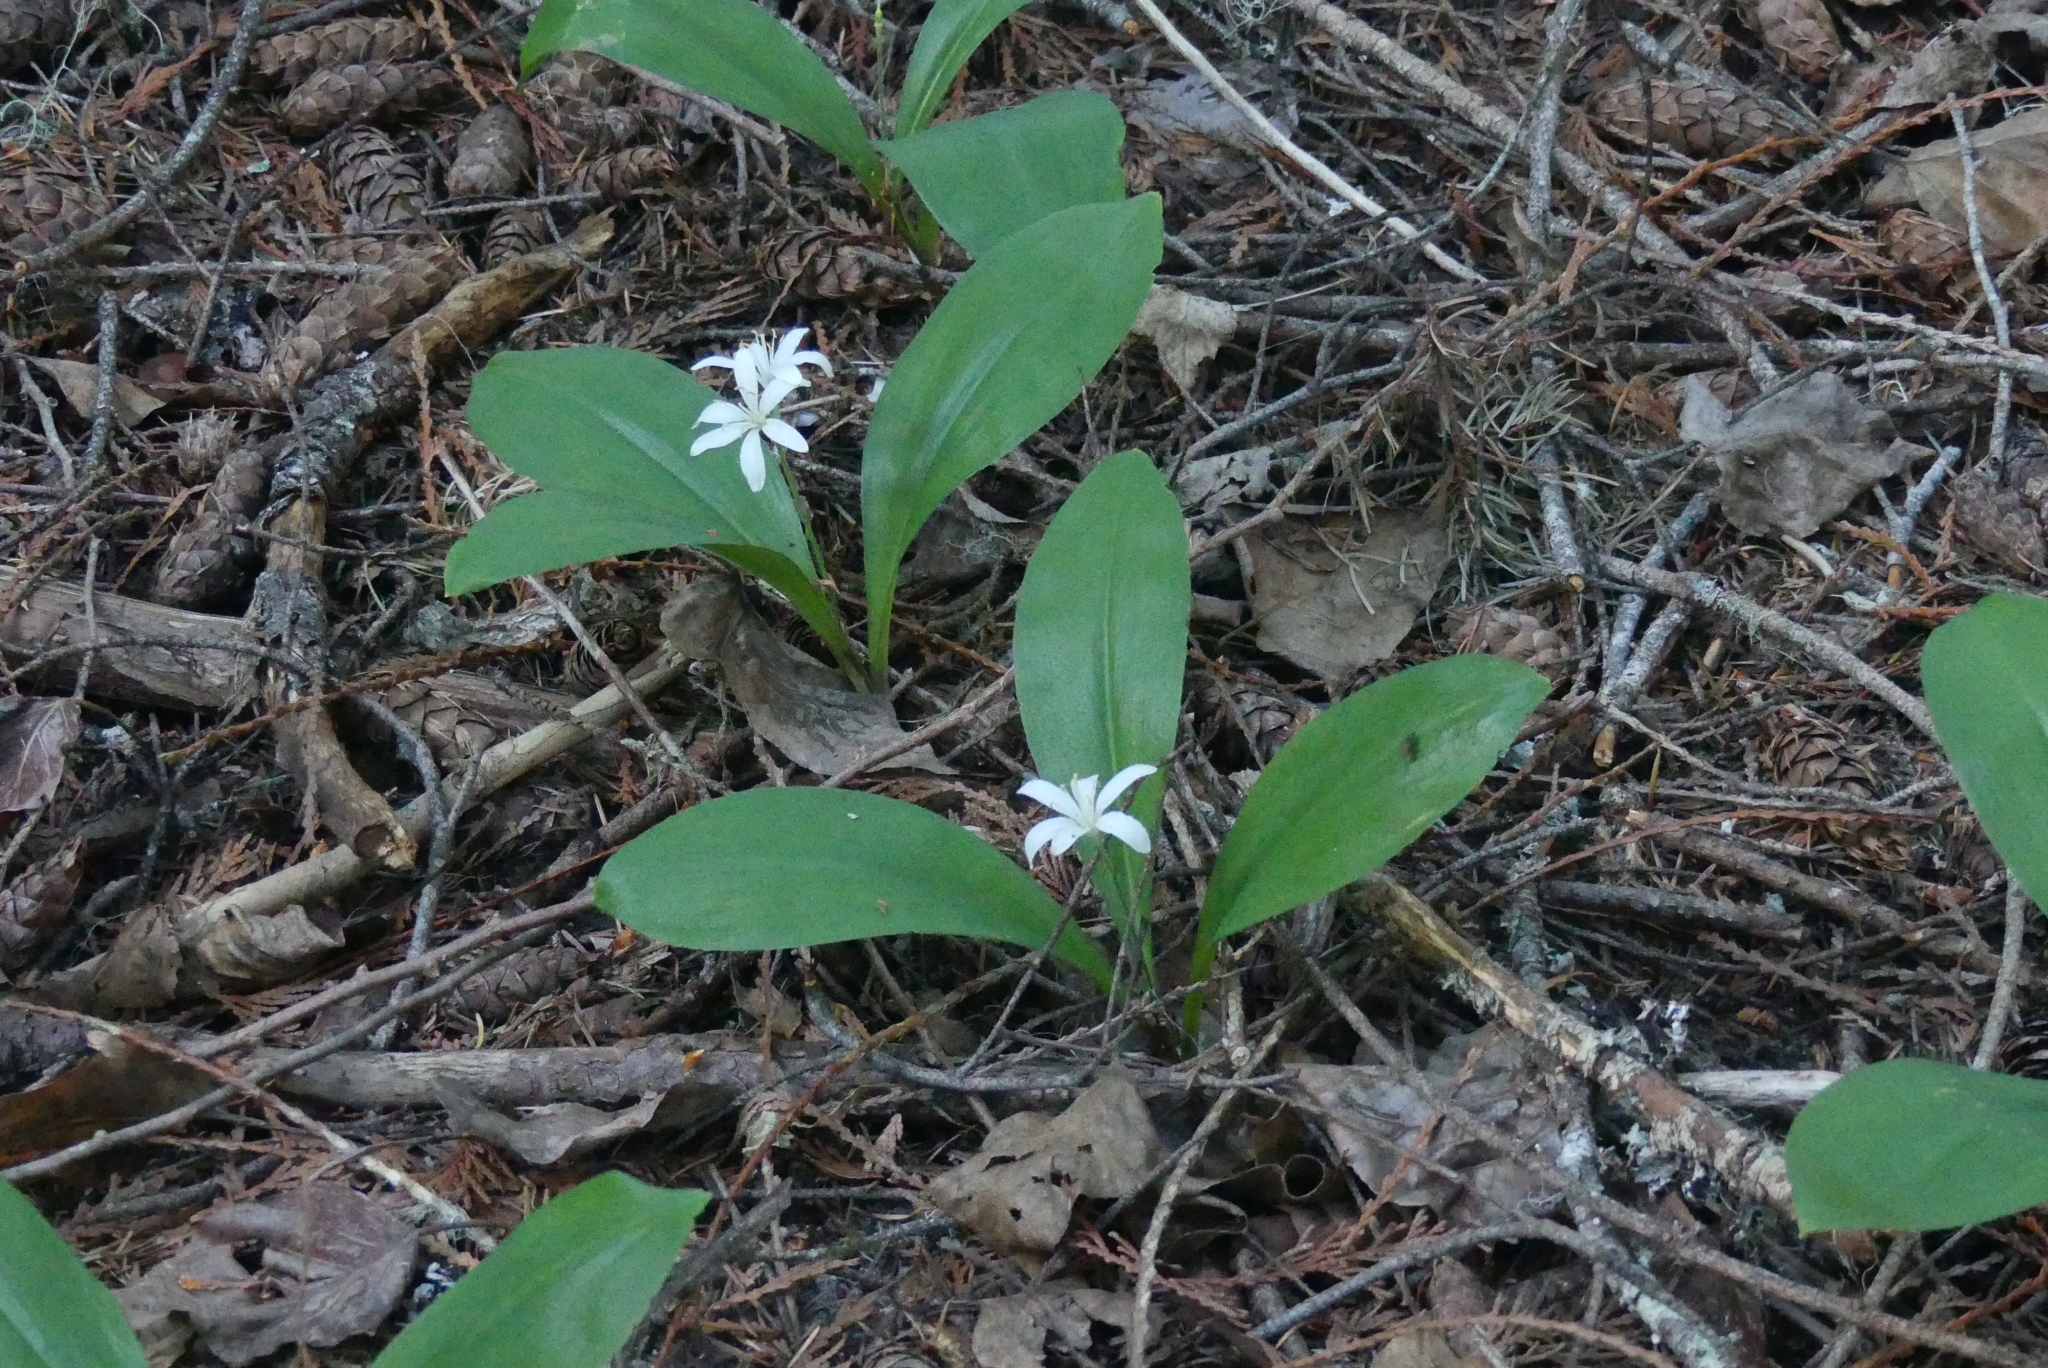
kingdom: Plantae
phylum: Tracheophyta
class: Liliopsida
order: Liliales
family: Liliaceae
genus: Clintonia
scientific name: Clintonia uniflora
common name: Queen's cup
